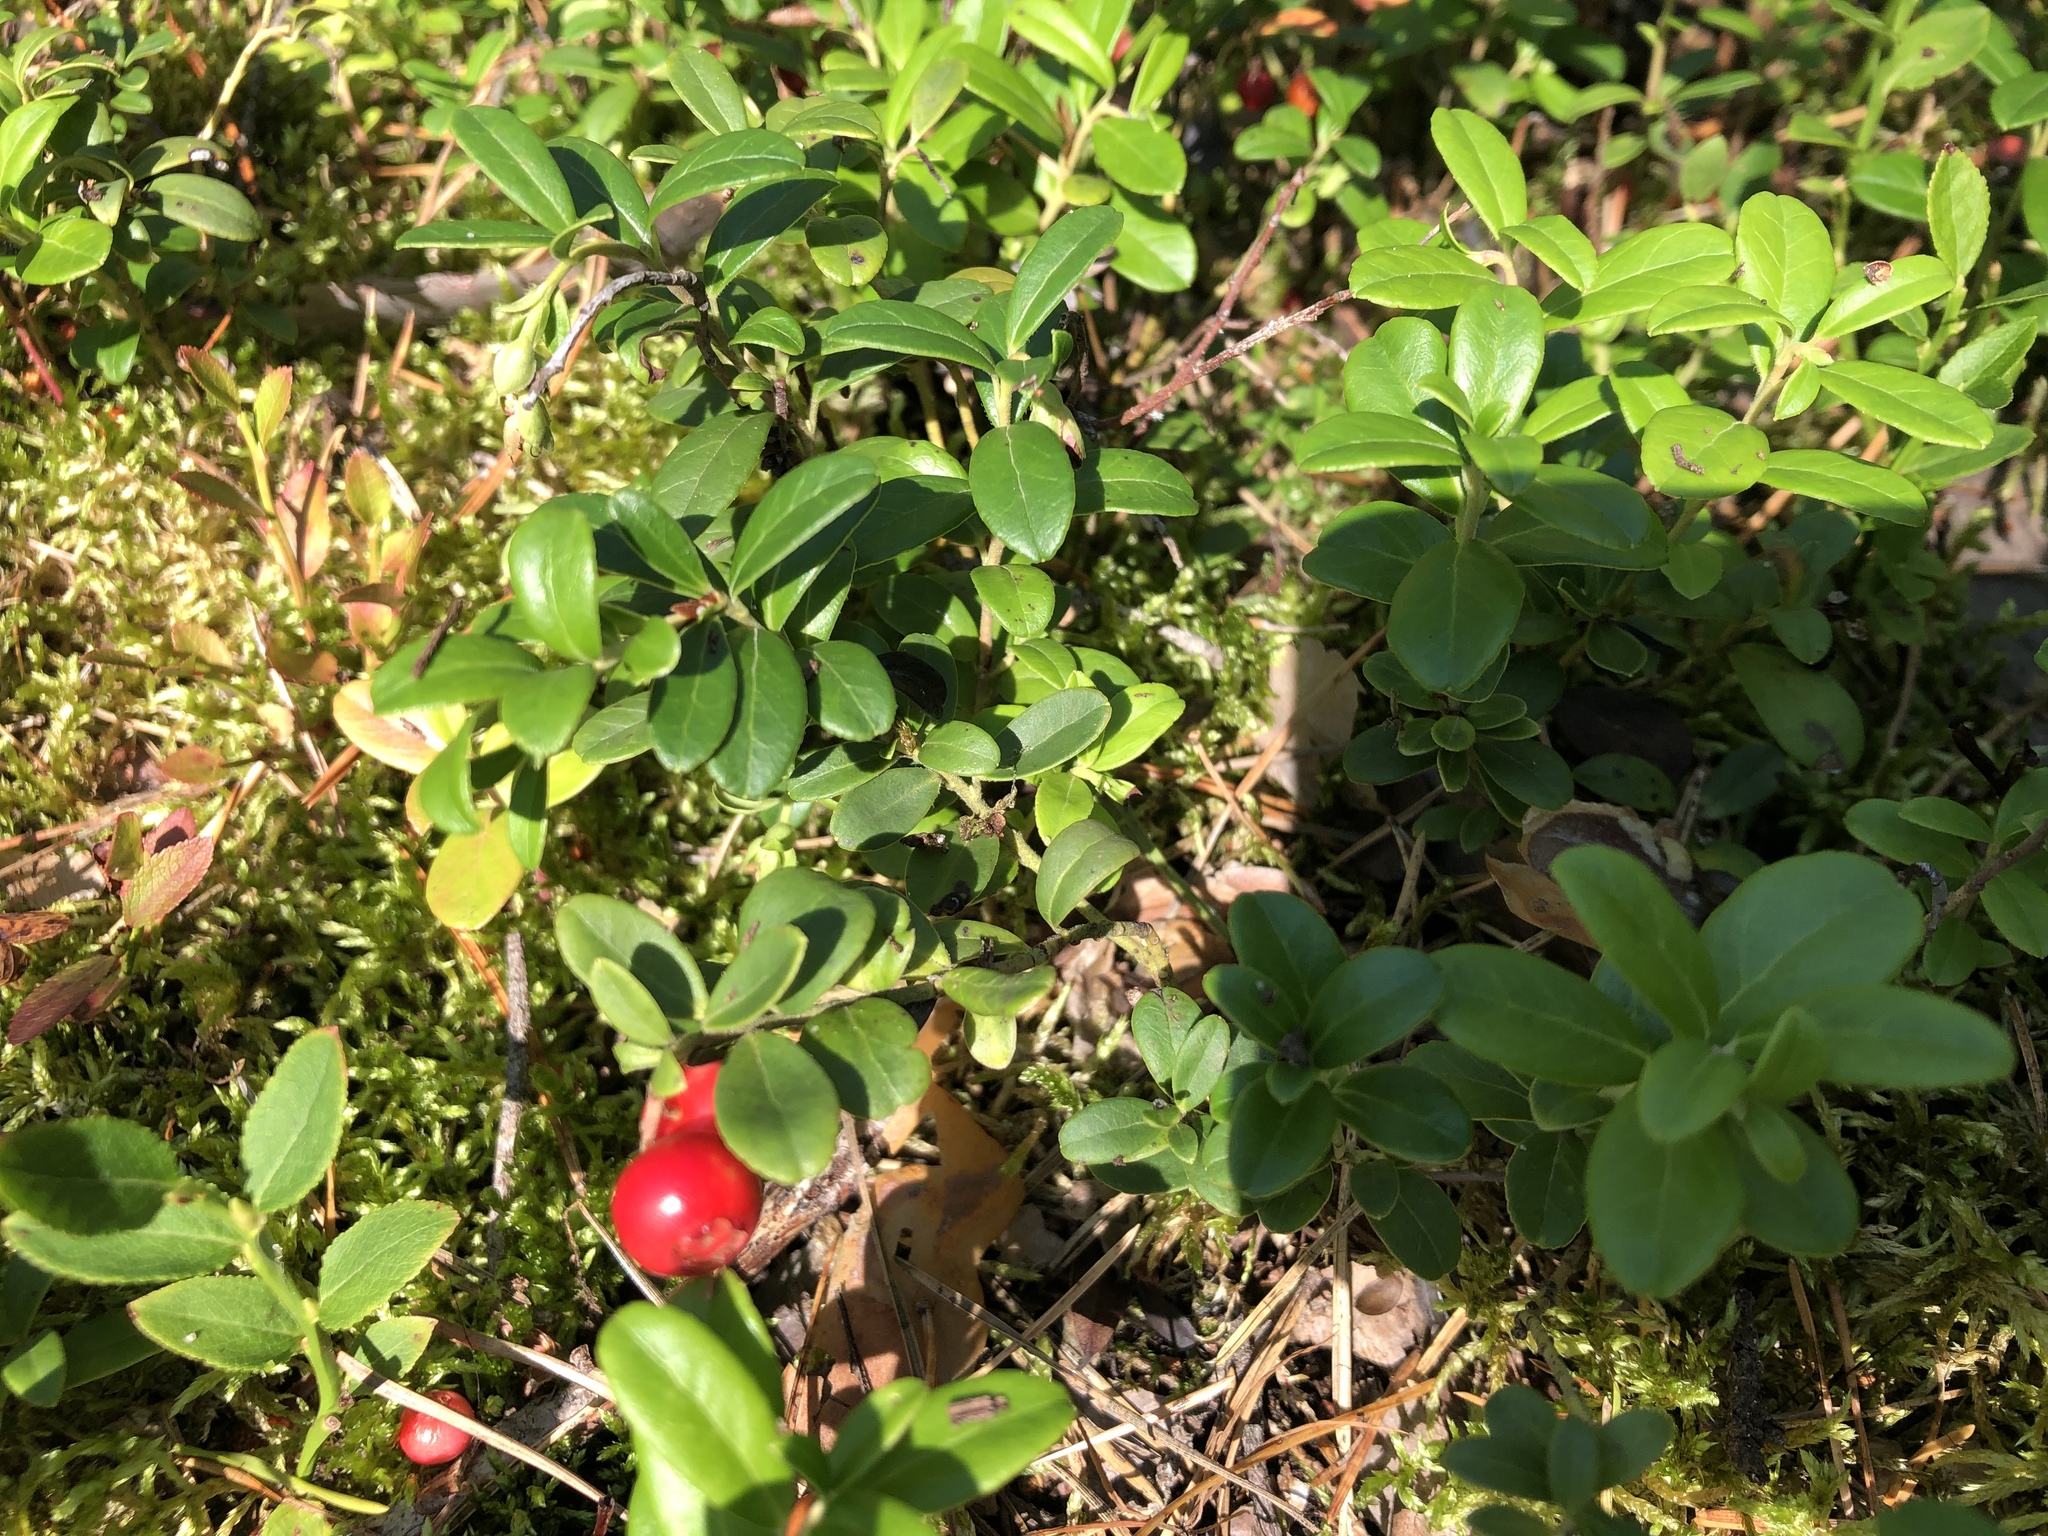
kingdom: Plantae
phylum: Tracheophyta
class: Magnoliopsida
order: Ericales
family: Ericaceae
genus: Vaccinium
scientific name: Vaccinium vitis-idaea
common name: Cowberry
